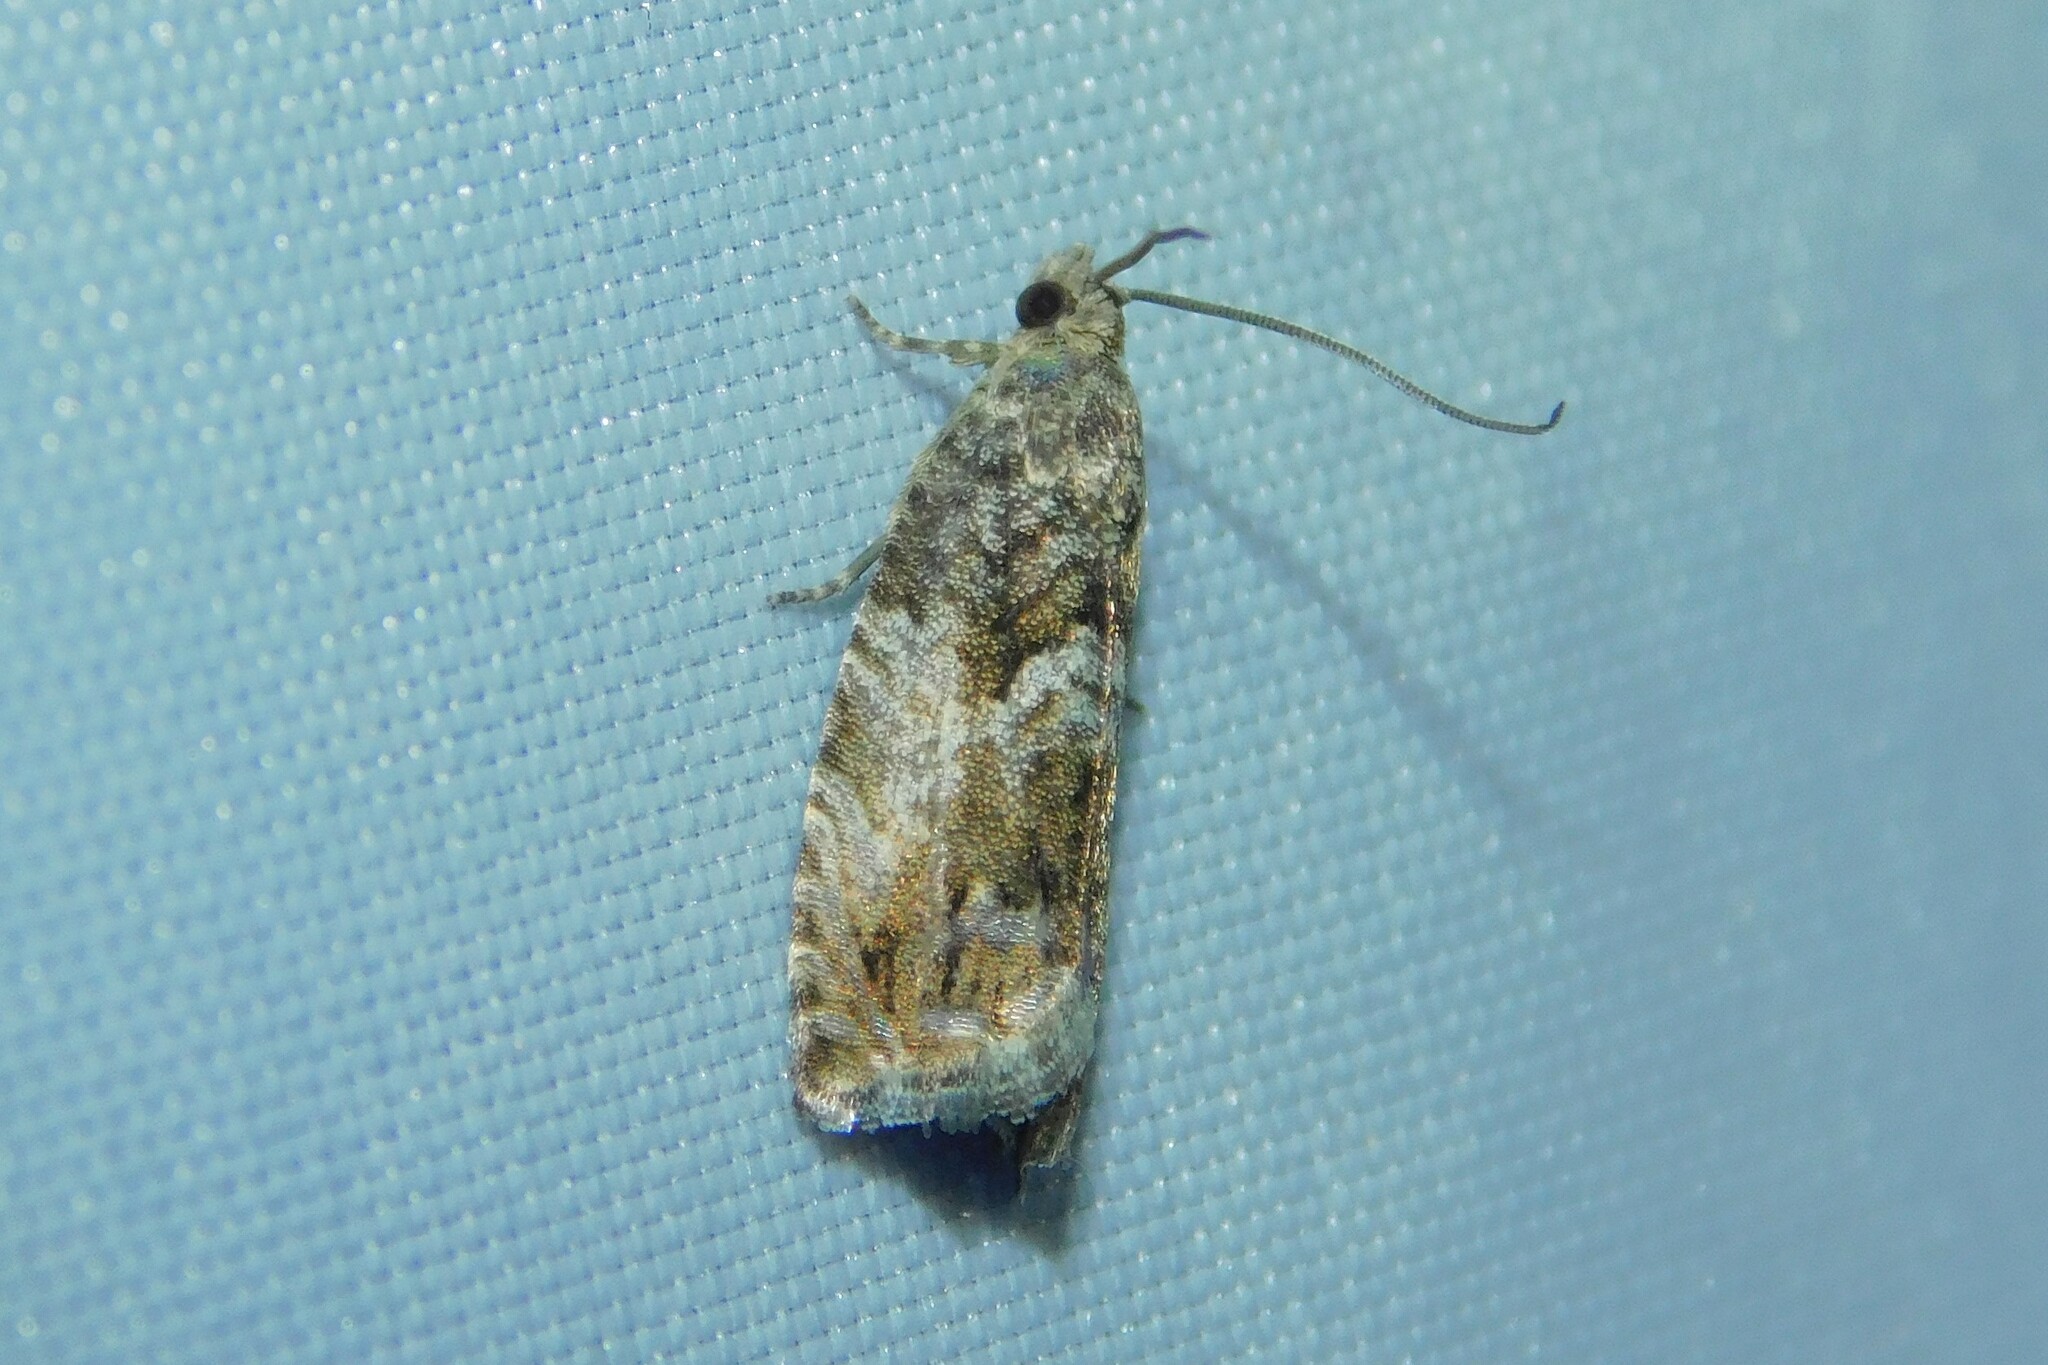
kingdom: Animalia
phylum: Arthropoda
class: Insecta
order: Lepidoptera
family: Tortricidae
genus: Cydia
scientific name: Cydia fagiglandana
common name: Large beech piercer
